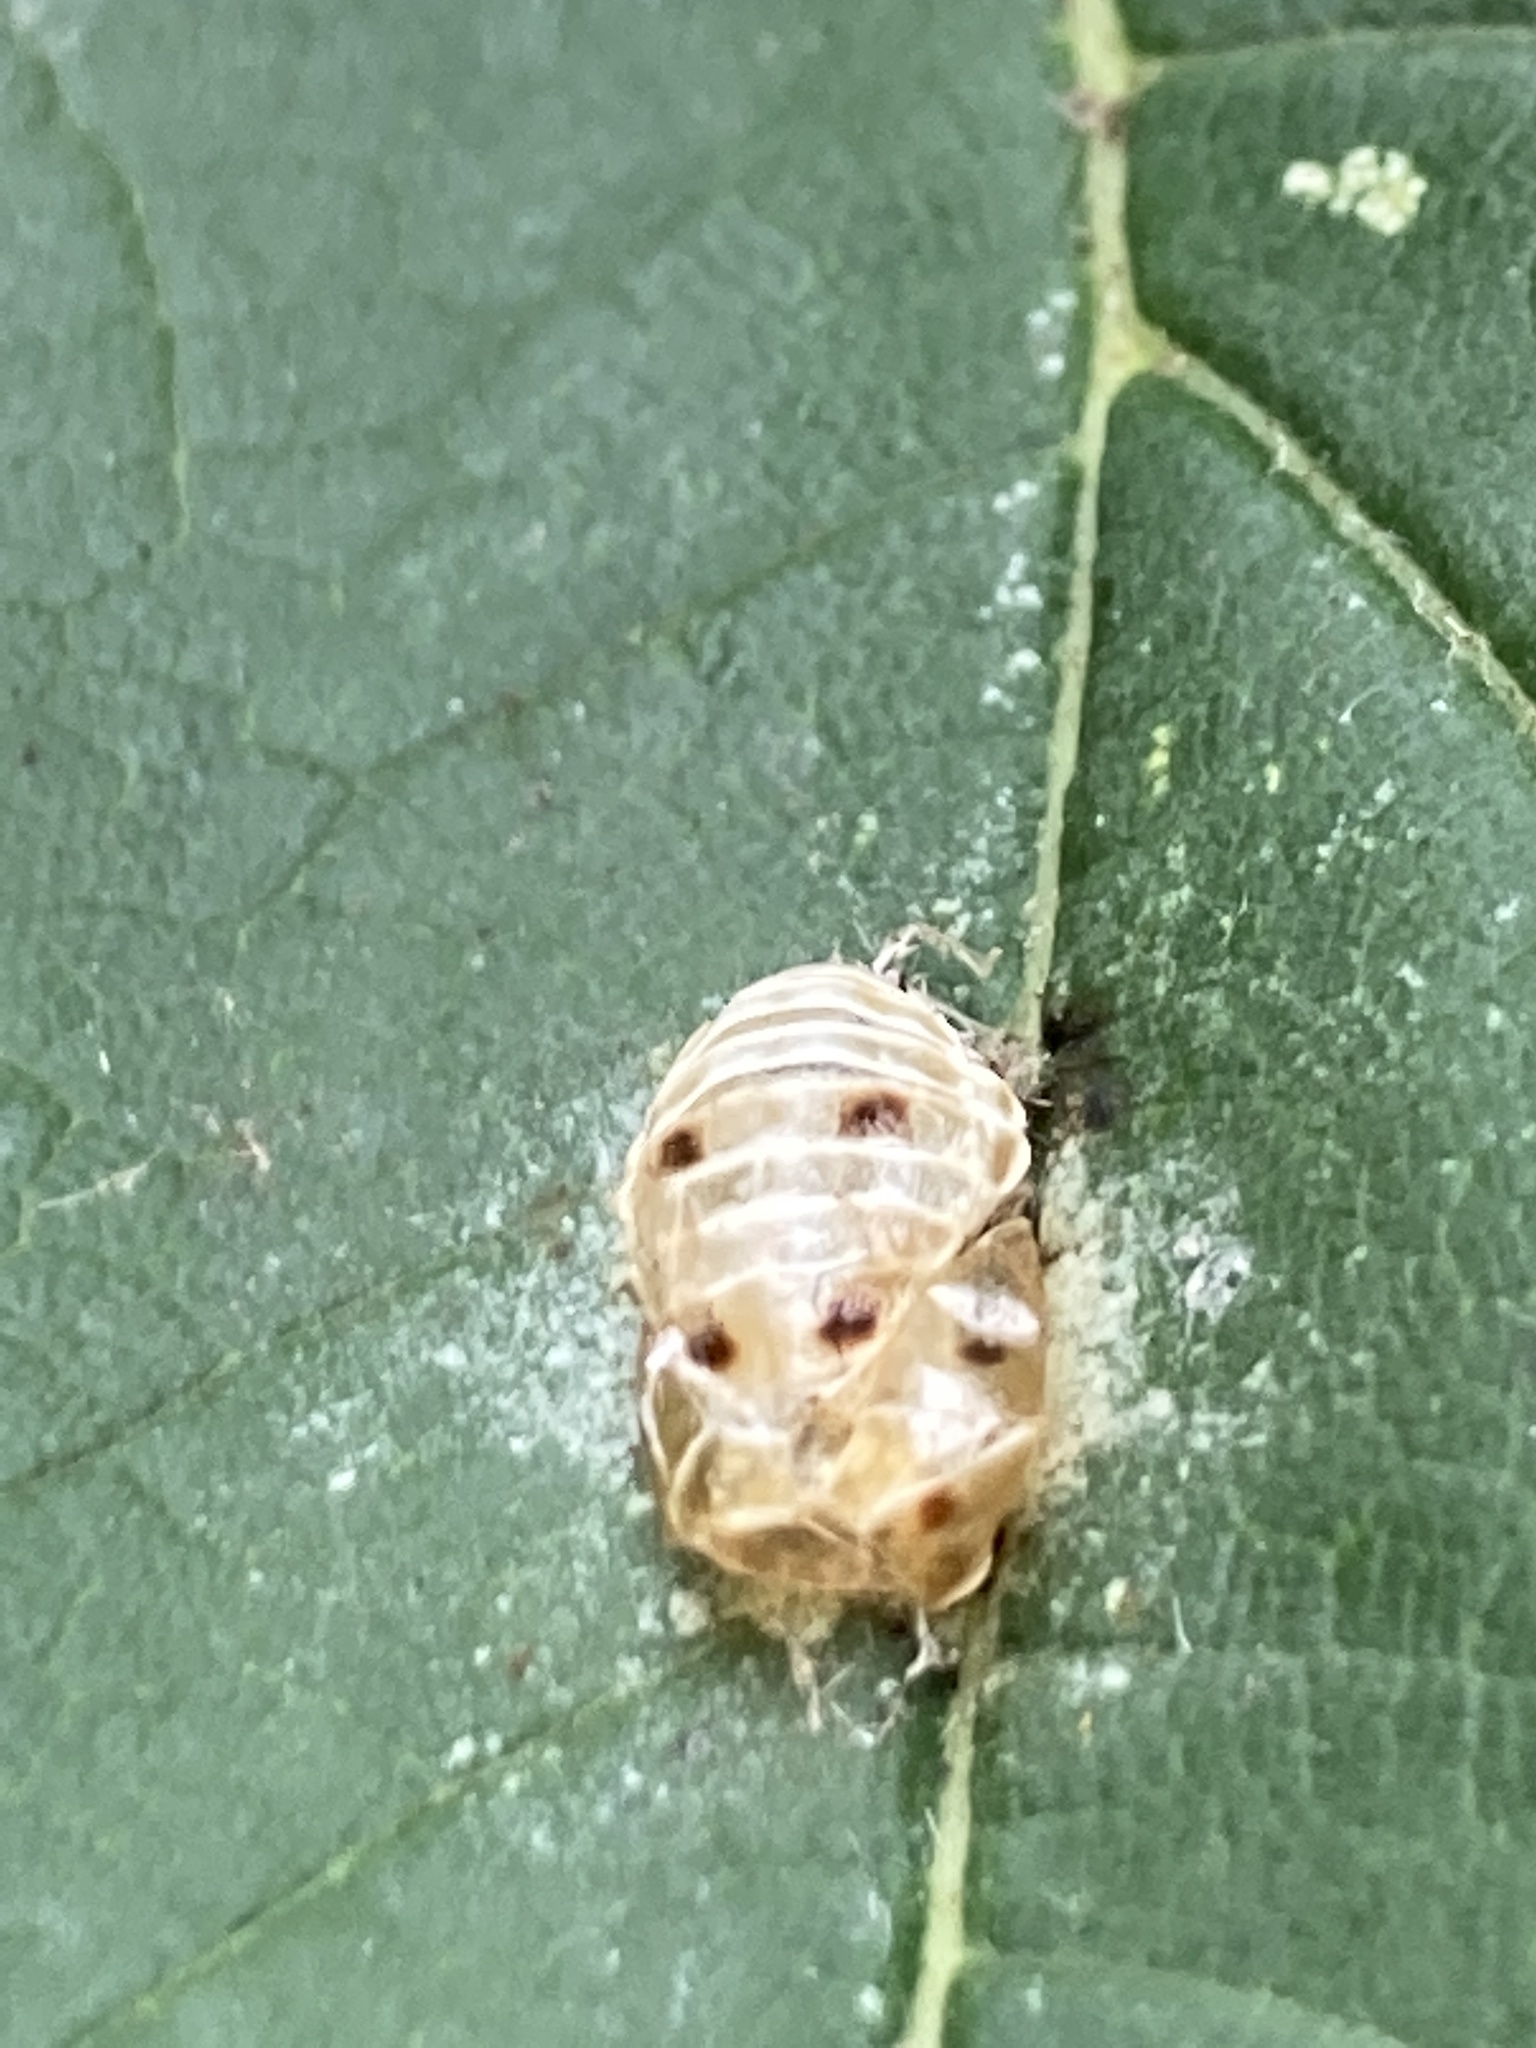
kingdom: Animalia
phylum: Arthropoda
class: Insecta
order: Coleoptera
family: Coccinellidae
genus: Harmonia
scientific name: Harmonia axyridis
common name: Harlequin ladybird
